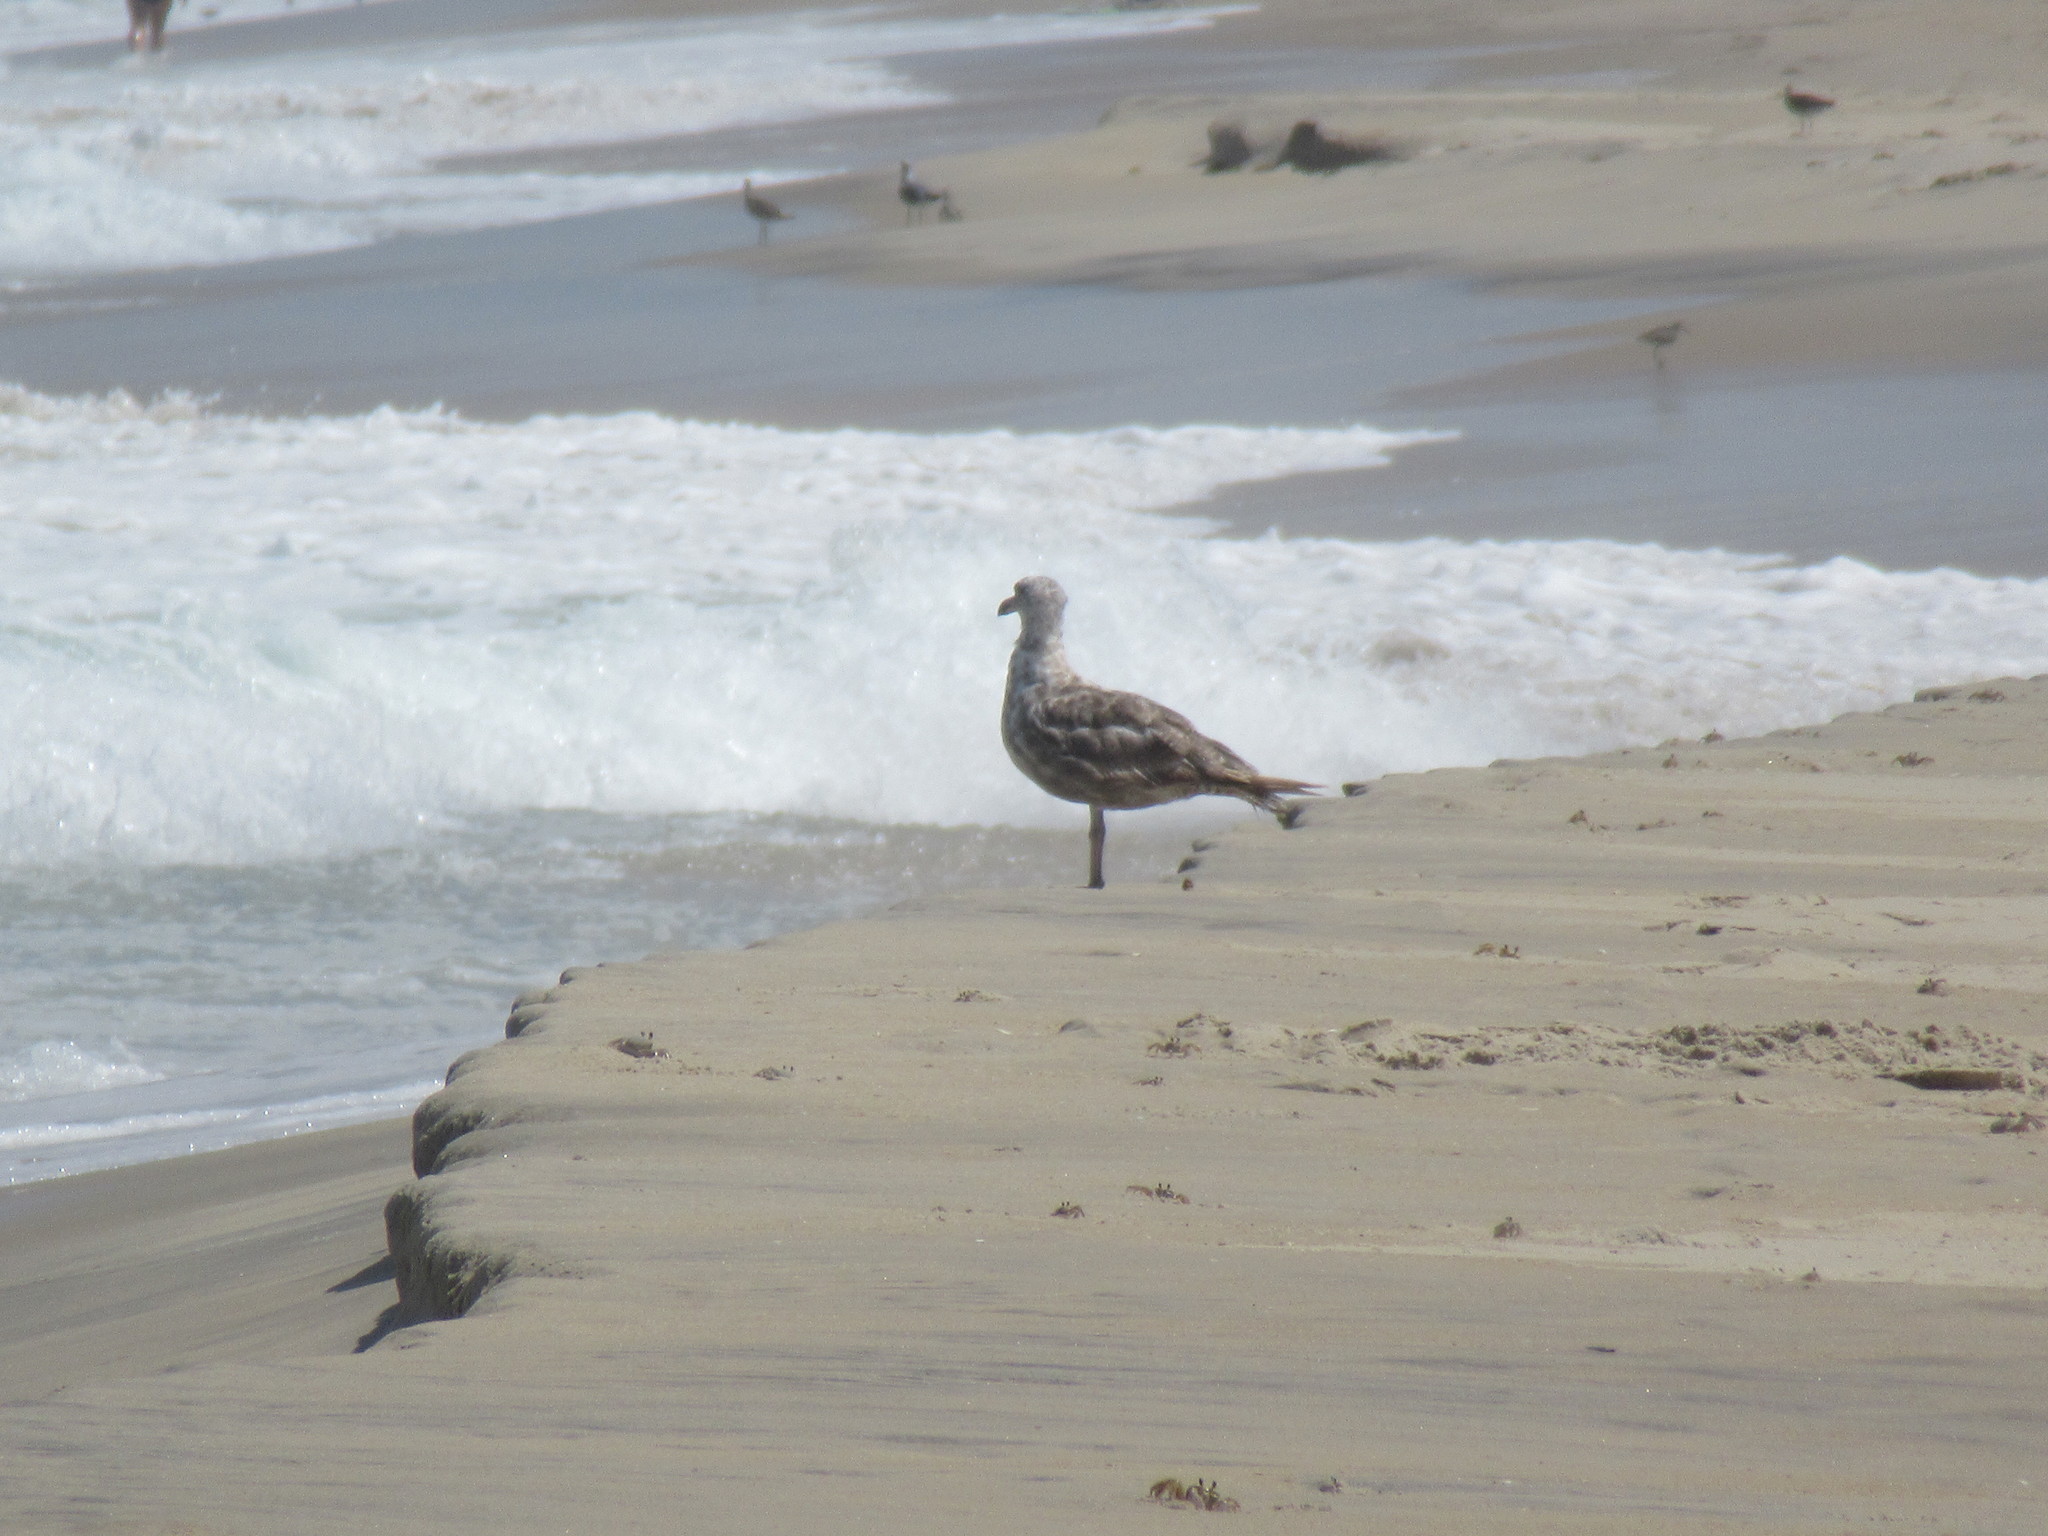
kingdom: Animalia
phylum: Chordata
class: Aves
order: Charadriiformes
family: Laridae
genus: Larus
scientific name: Larus argentatus
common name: Herring gull
